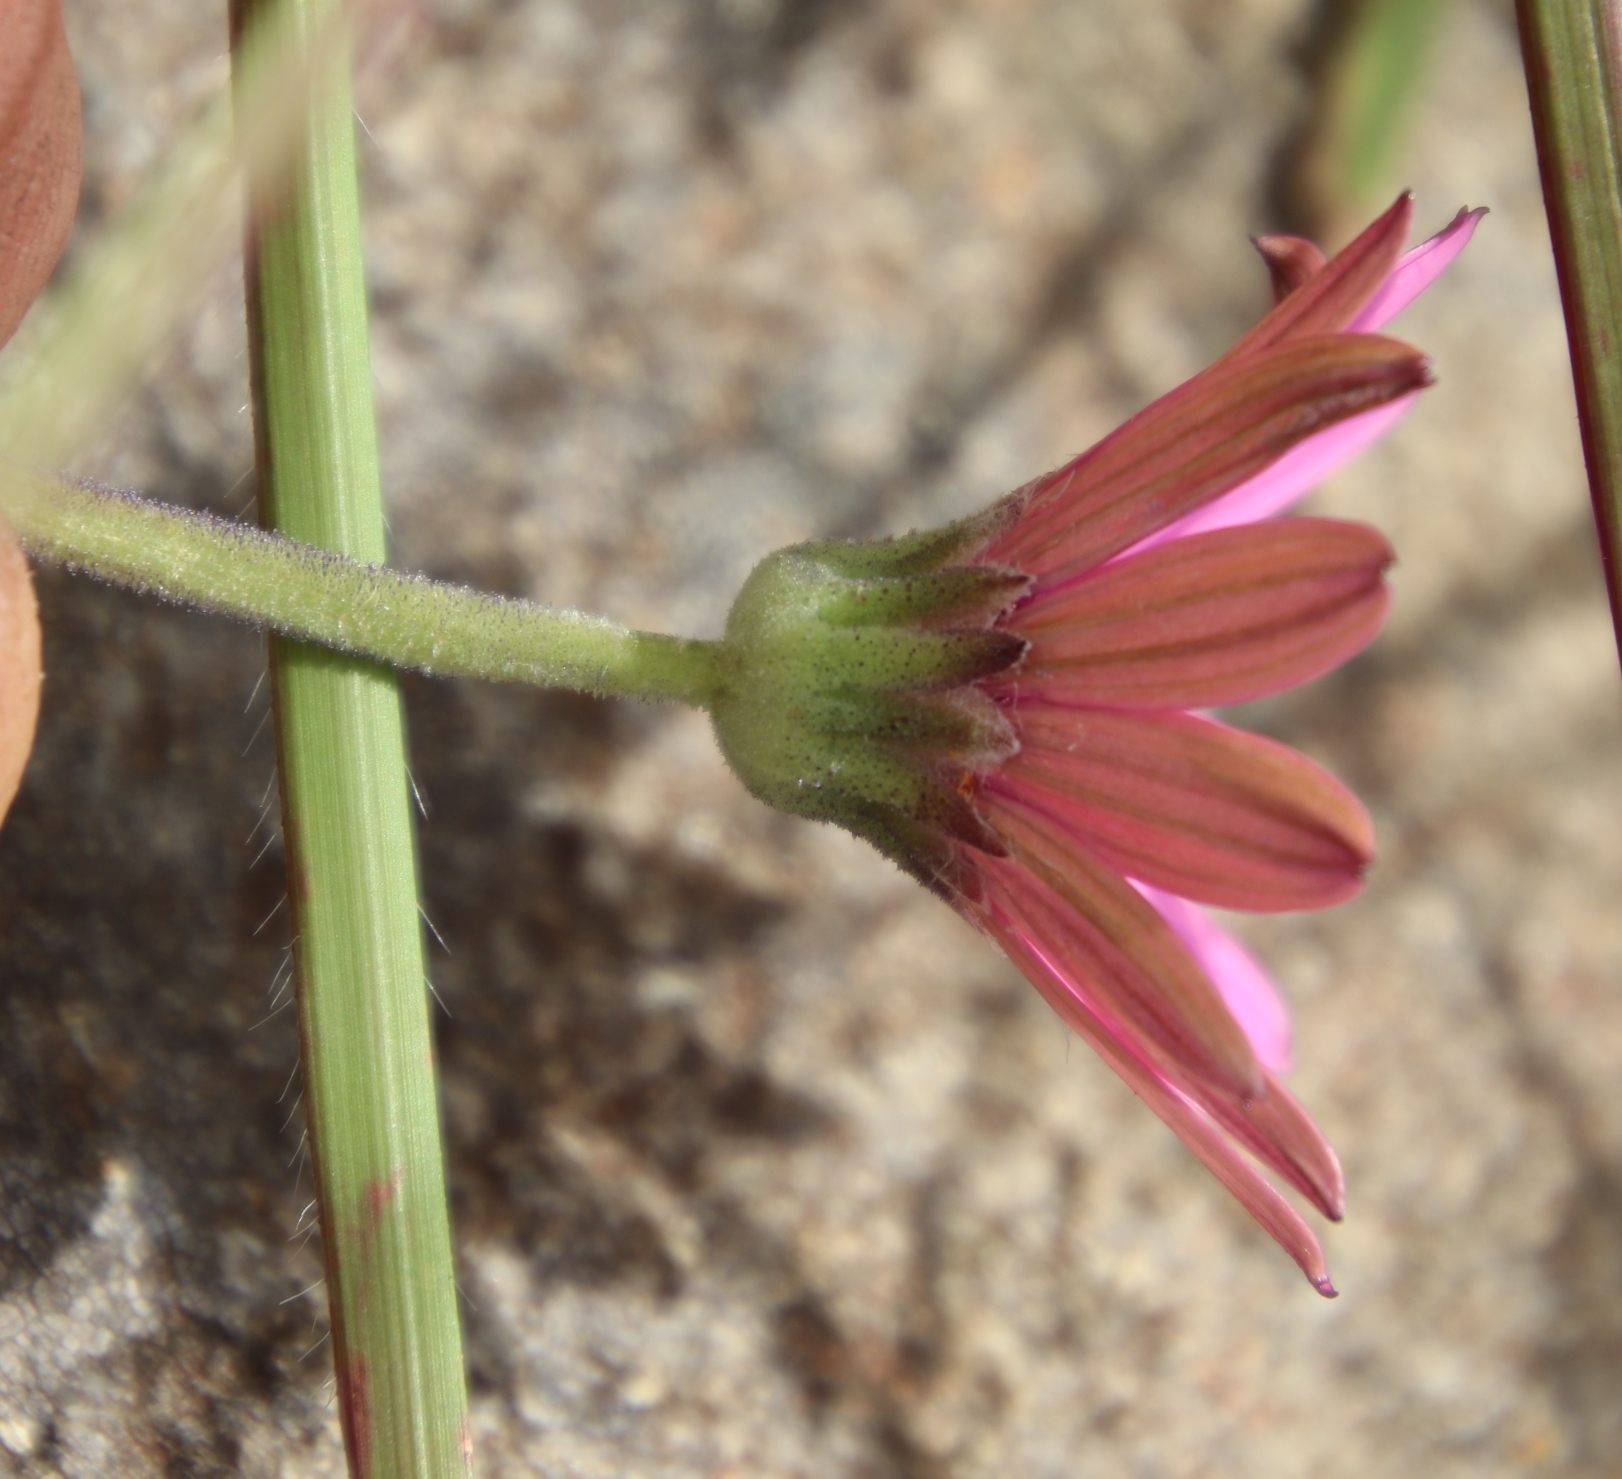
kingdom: Plantae
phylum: Tracheophyta
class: Magnoliopsida
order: Asterales
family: Asteraceae
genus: Dimorphotheca
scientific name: Dimorphotheca jucunda
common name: Osteospermum
